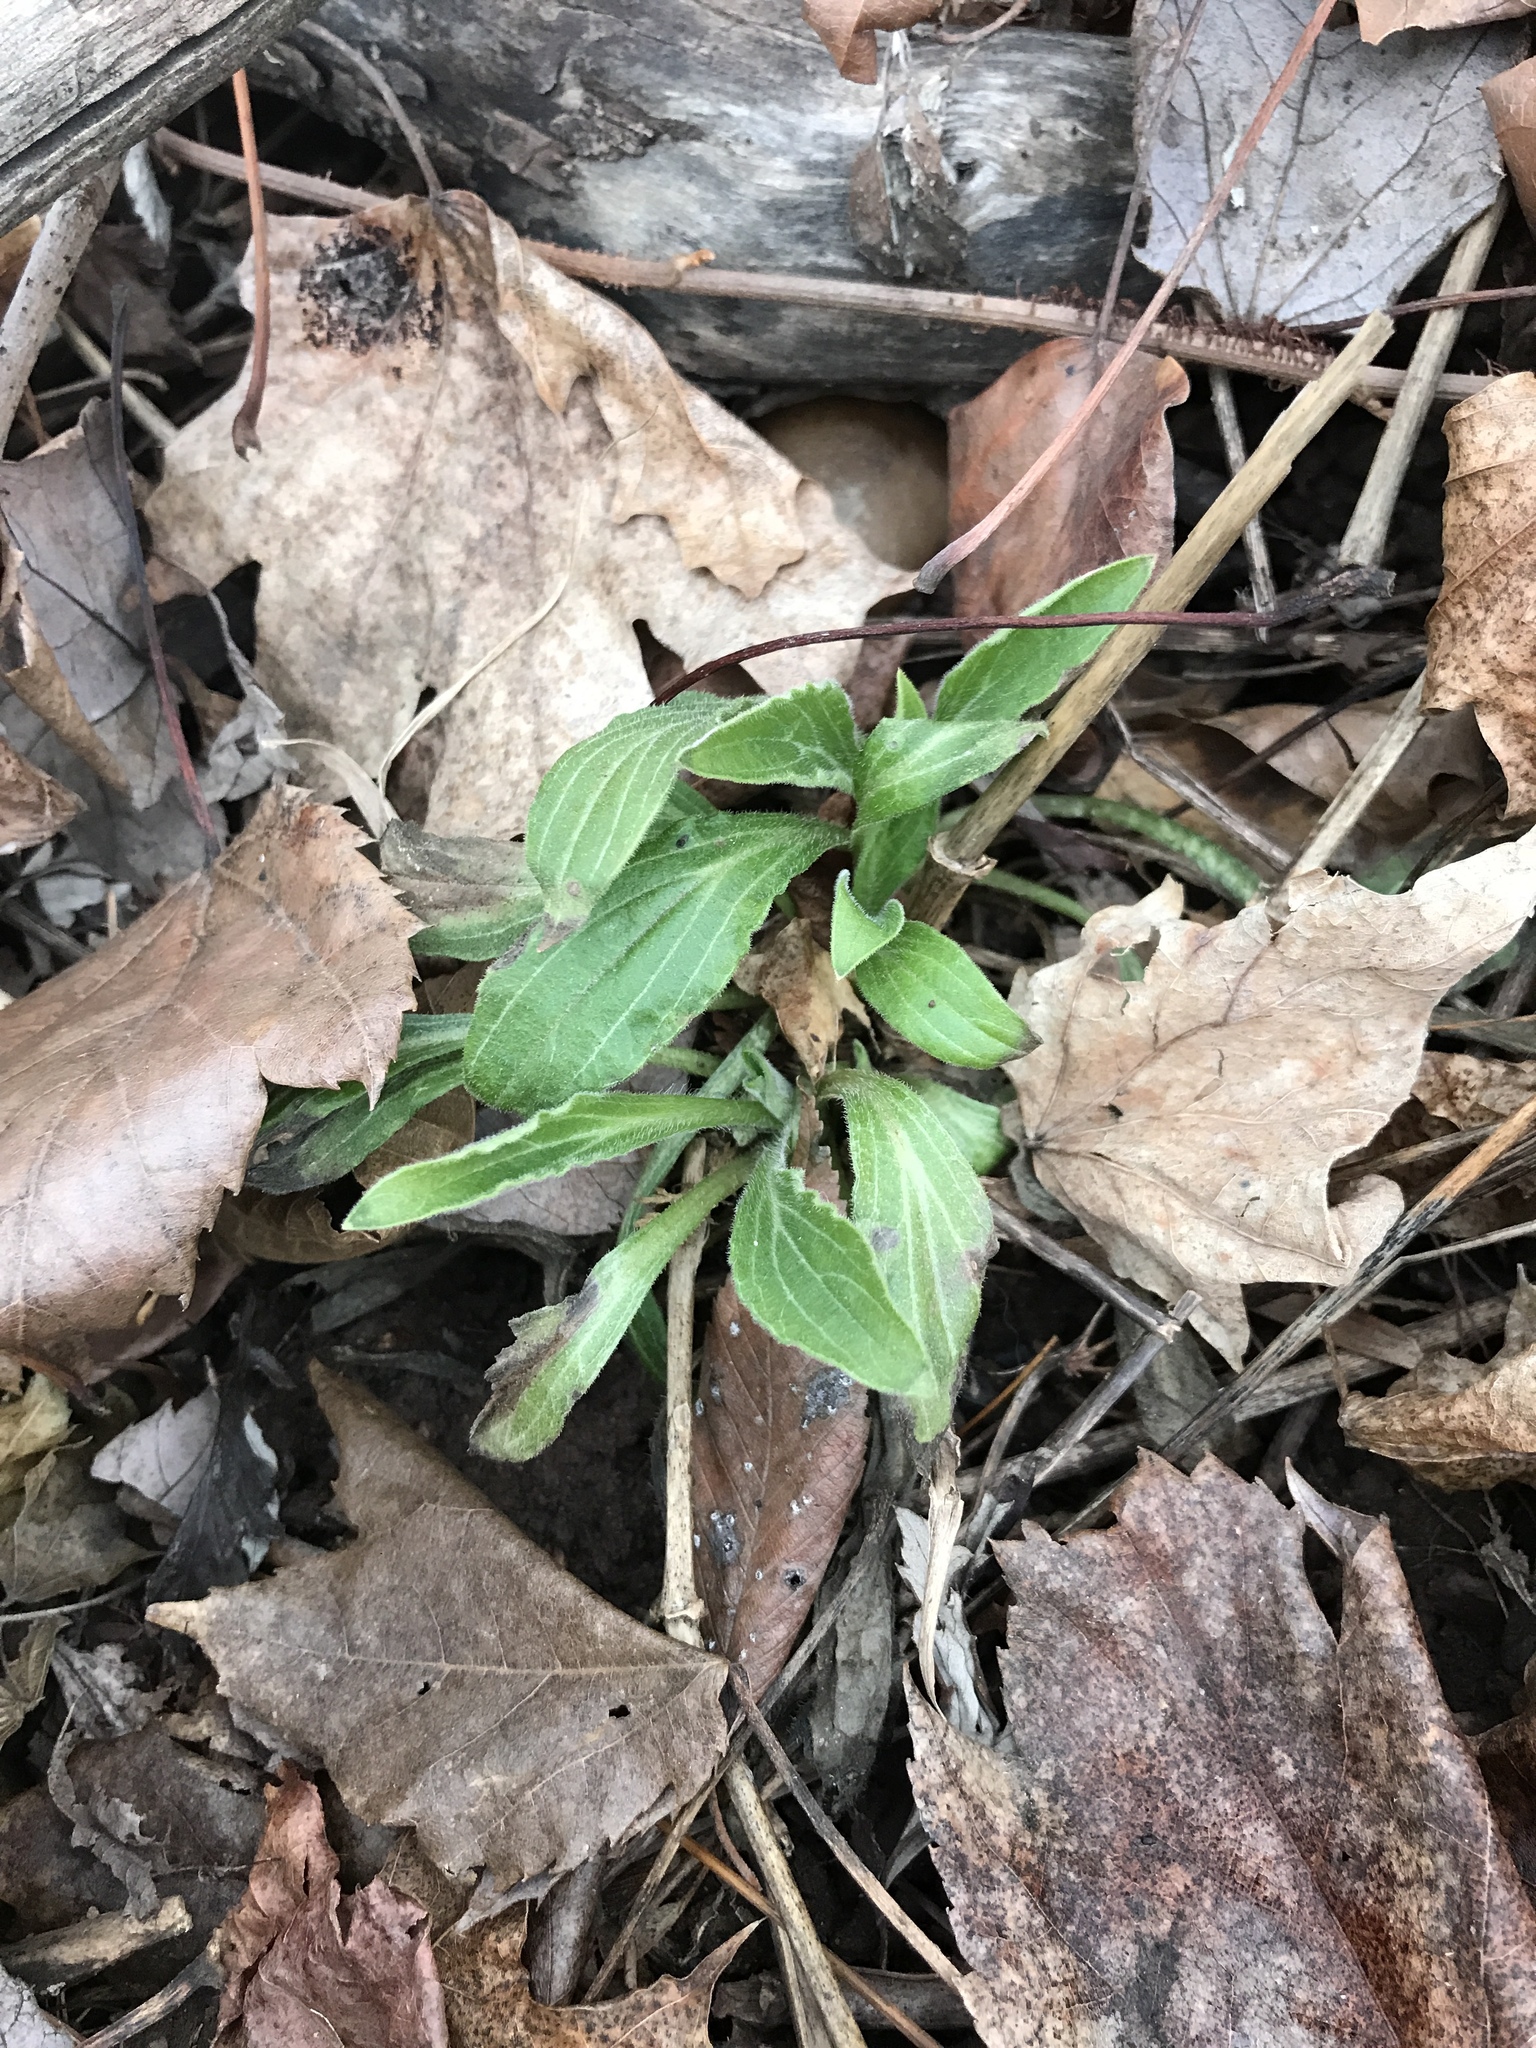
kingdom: Plantae
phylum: Tracheophyta
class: Magnoliopsida
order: Caryophyllales
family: Caryophyllaceae
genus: Silene
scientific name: Silene latifolia
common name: White campion
